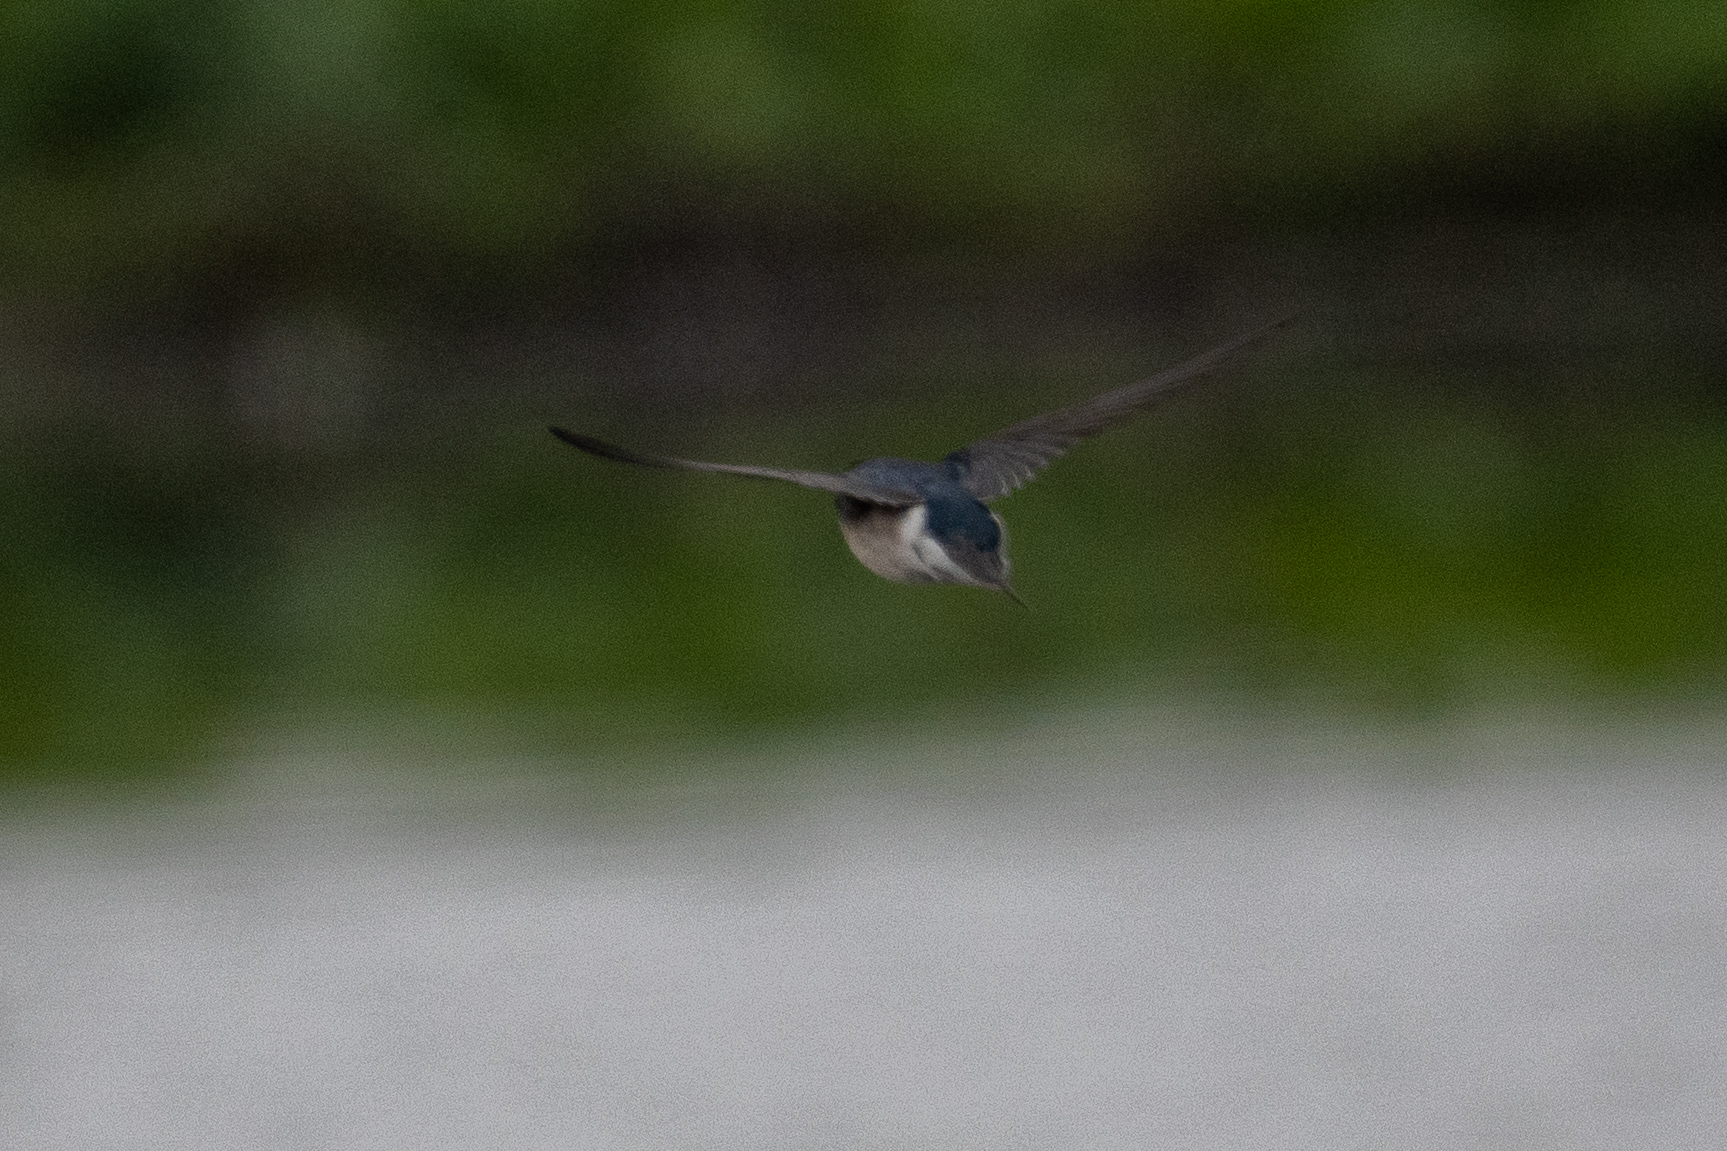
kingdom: Animalia
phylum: Chordata
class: Aves
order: Passeriformes
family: Hirundinidae
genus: Tachycineta
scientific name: Tachycineta bicolor
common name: Tree swallow
